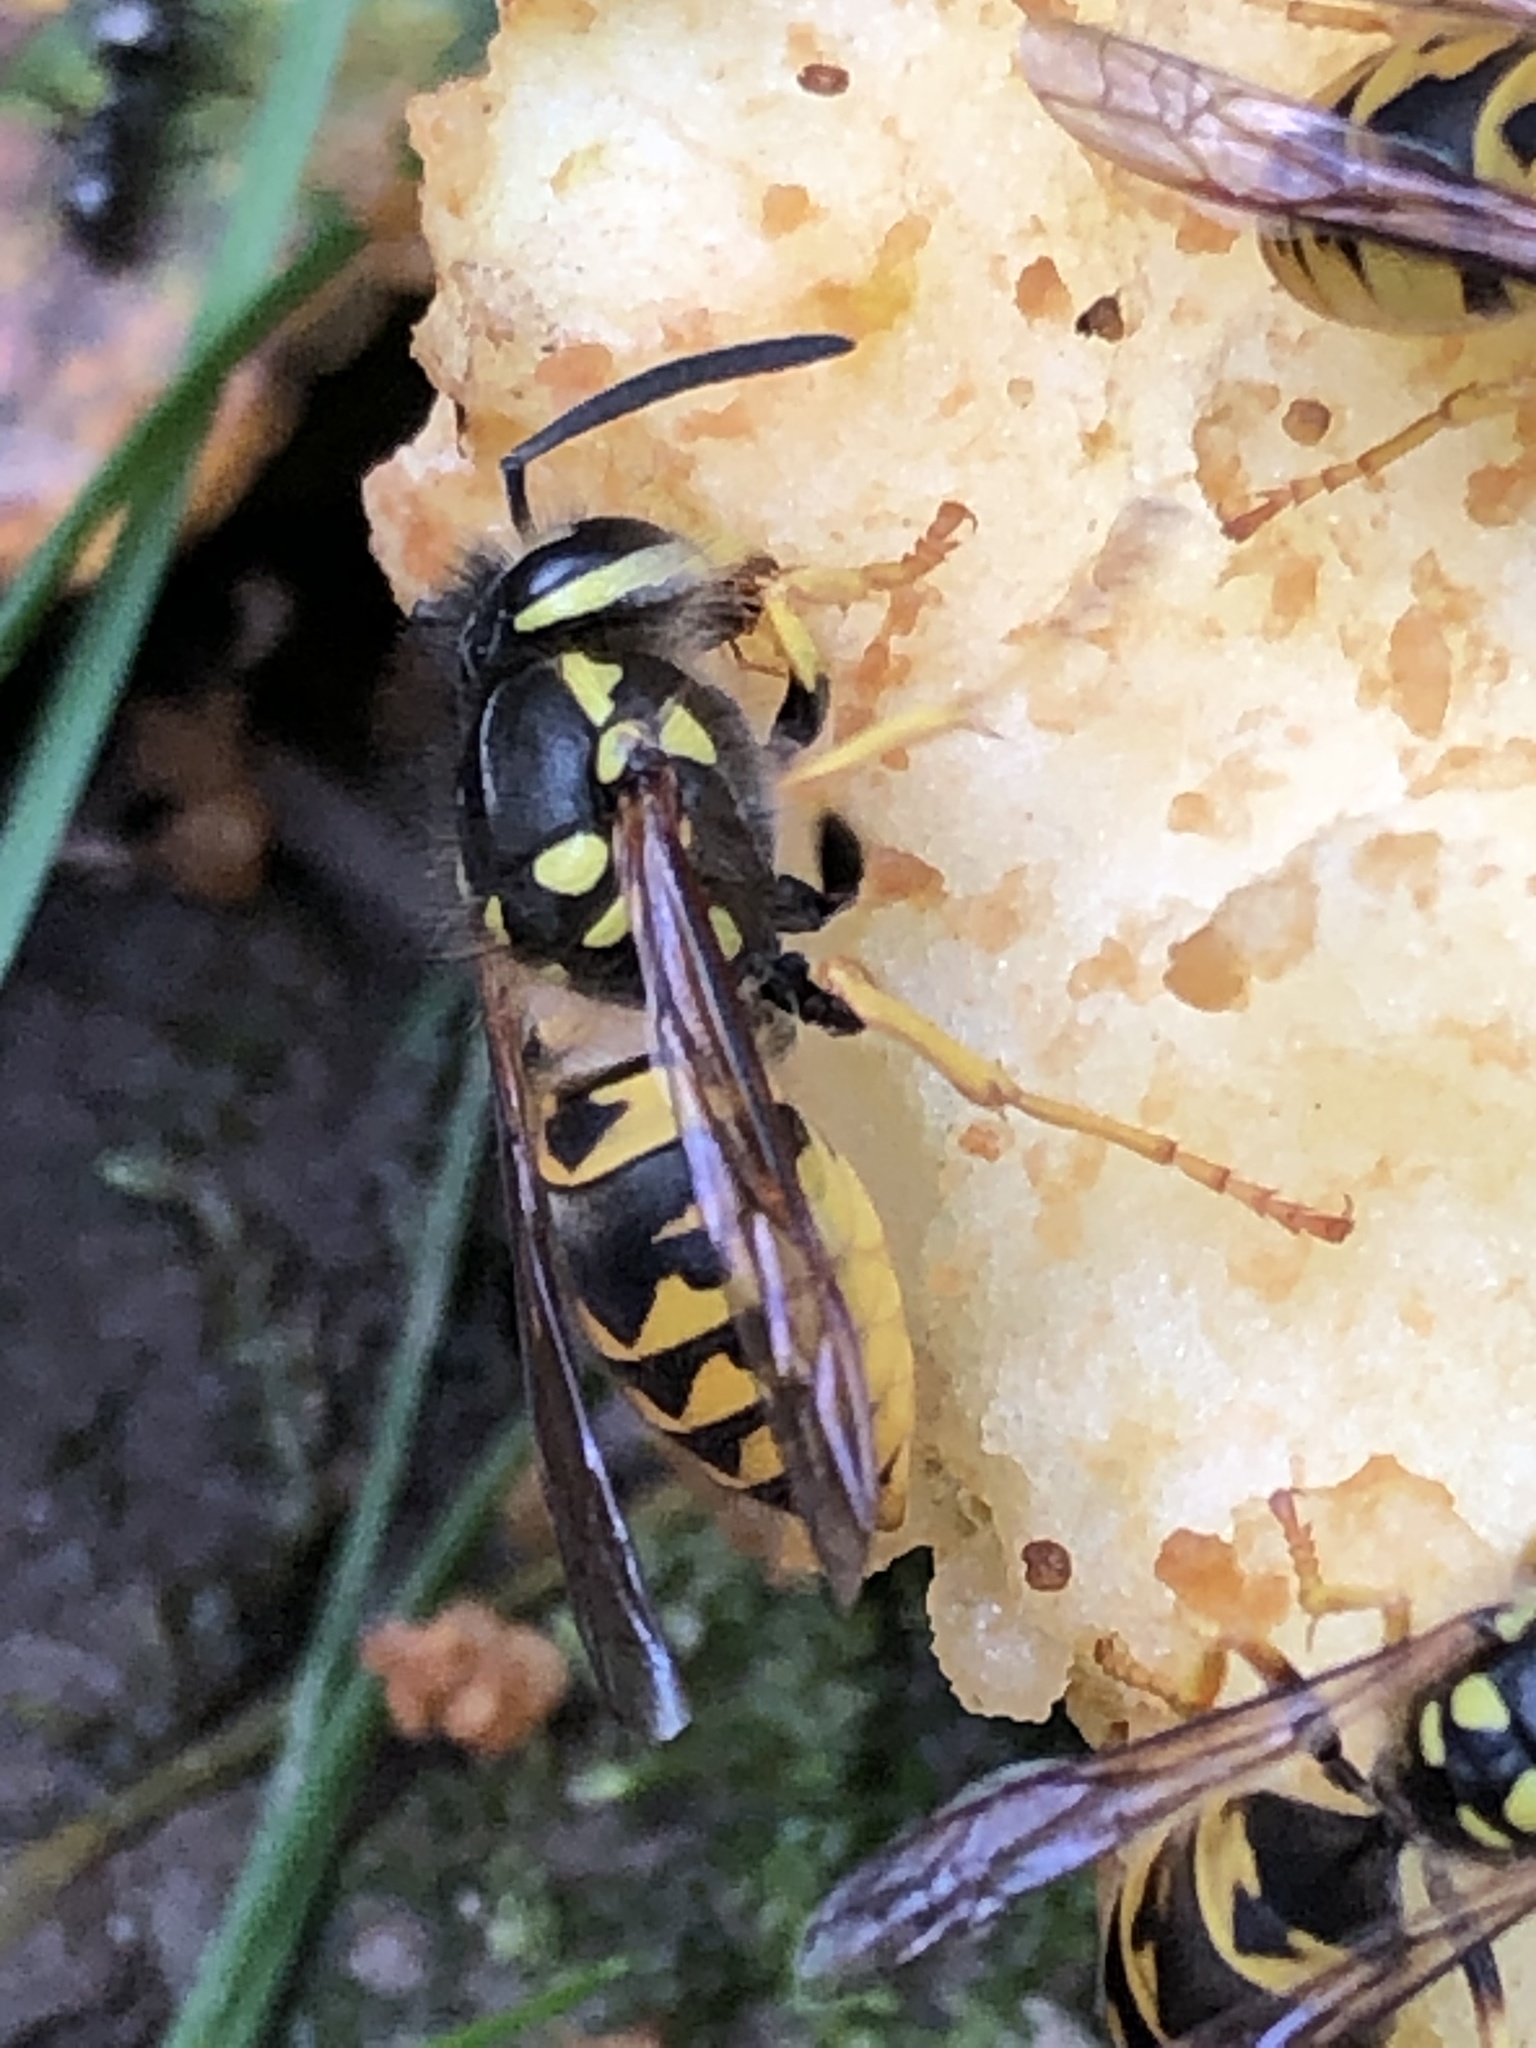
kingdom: Animalia
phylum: Arthropoda
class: Insecta
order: Hymenoptera
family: Vespidae
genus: Vespula
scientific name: Vespula germanica
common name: German wasp
